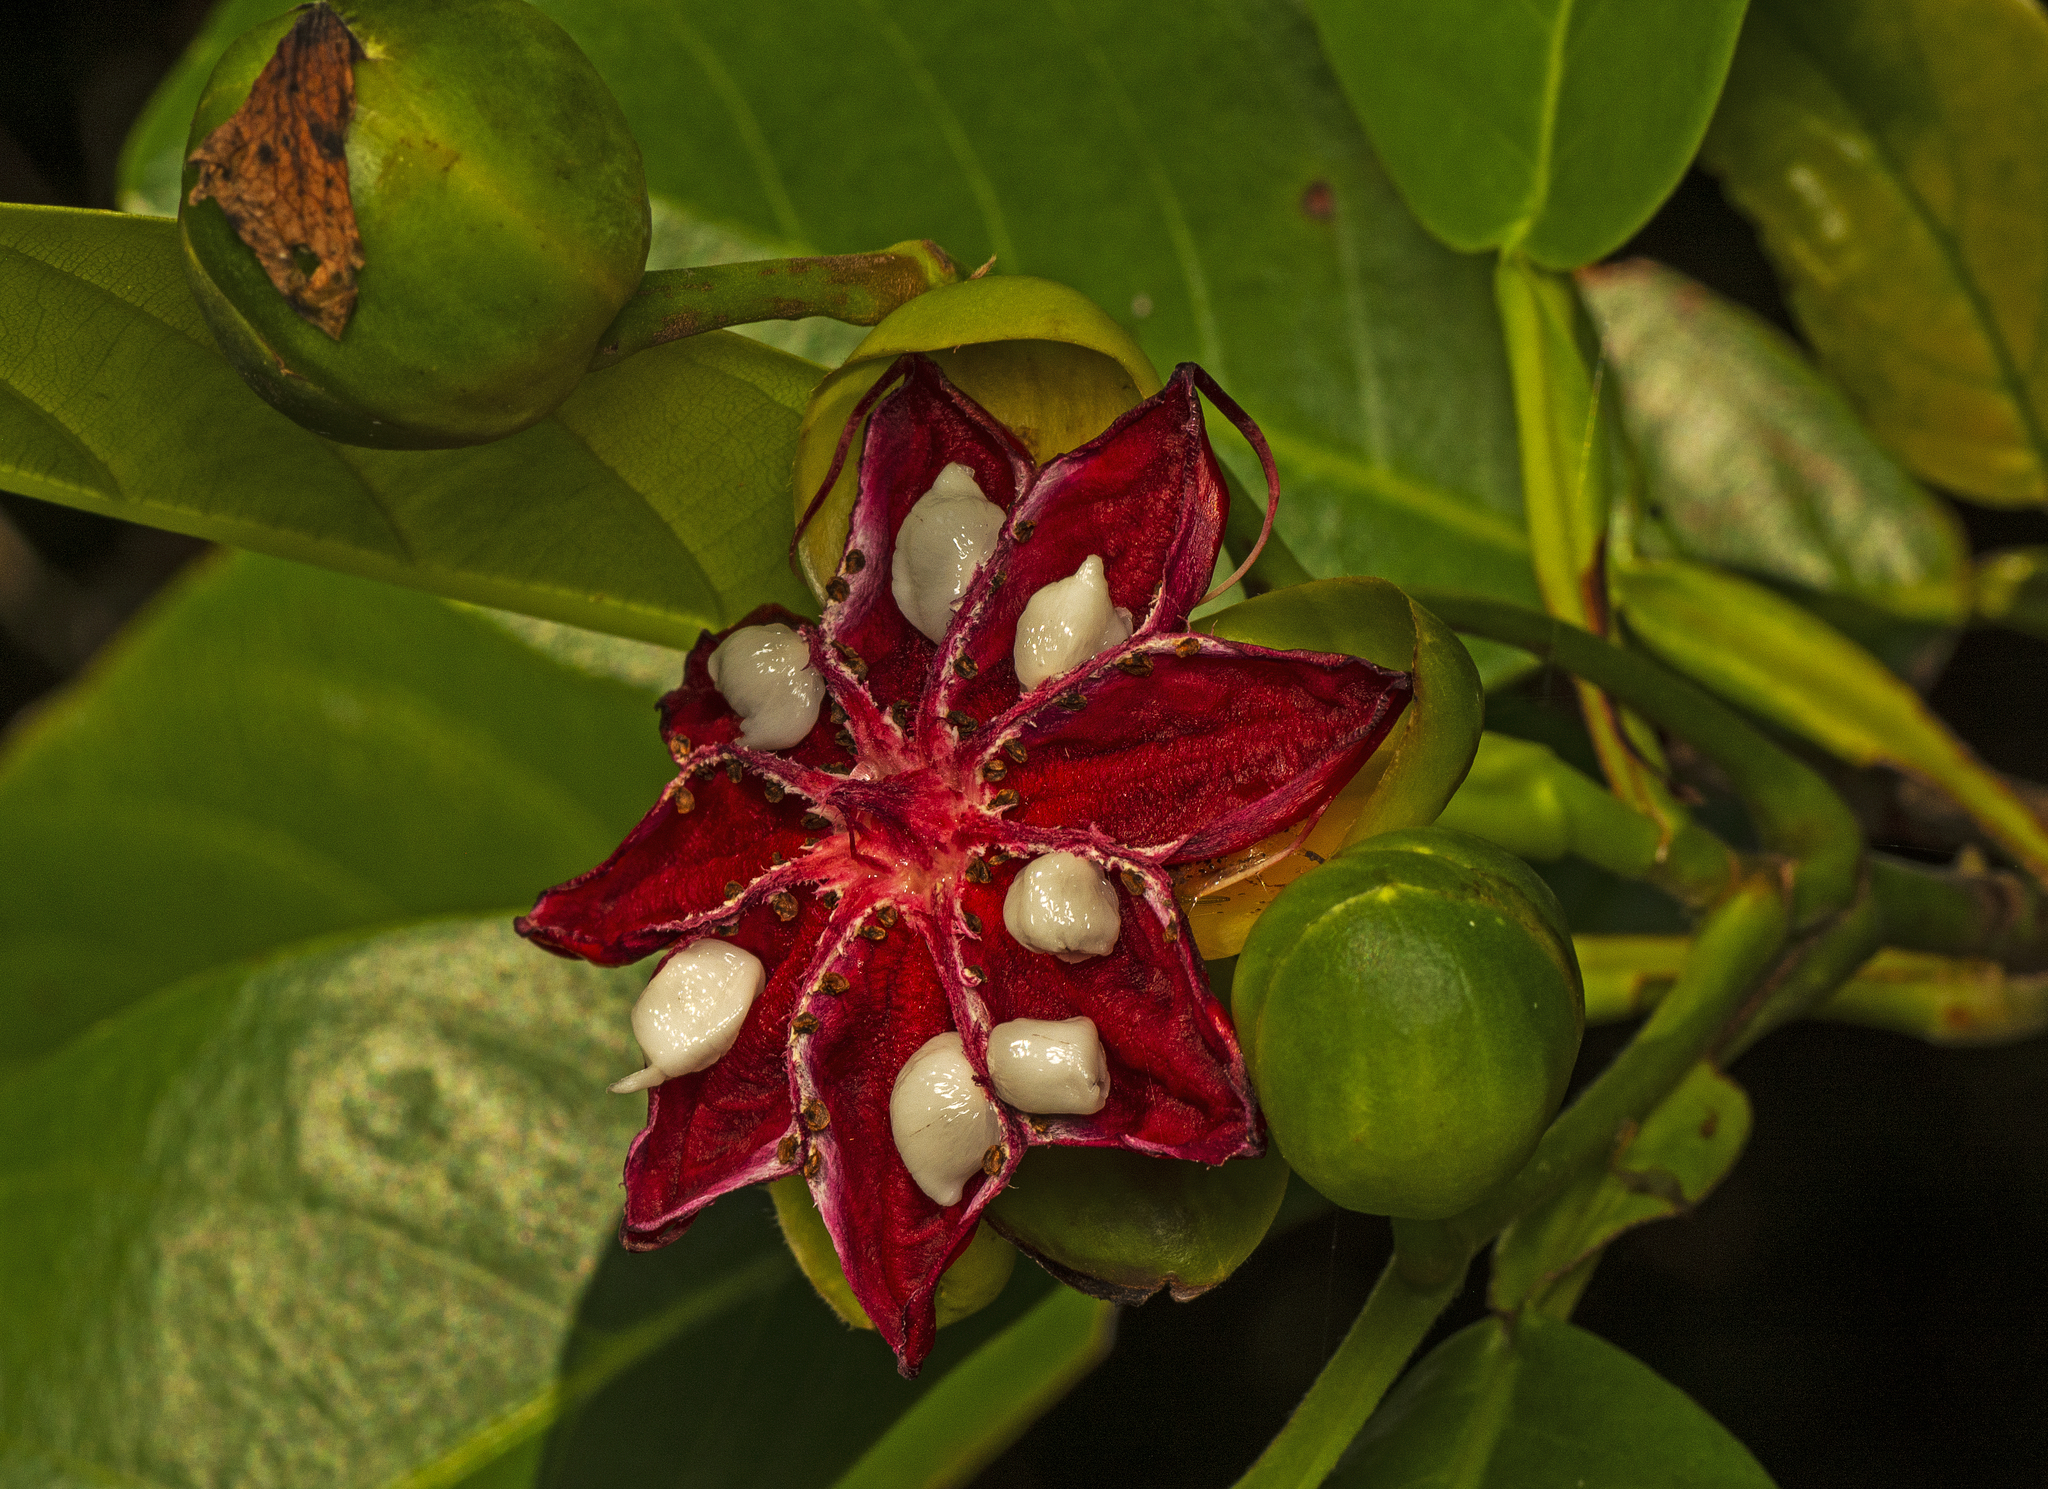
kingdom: Plantae
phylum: Tracheophyta
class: Magnoliopsida
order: Dilleniales
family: Dilleniaceae
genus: Dillenia
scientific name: Dillenia alata
